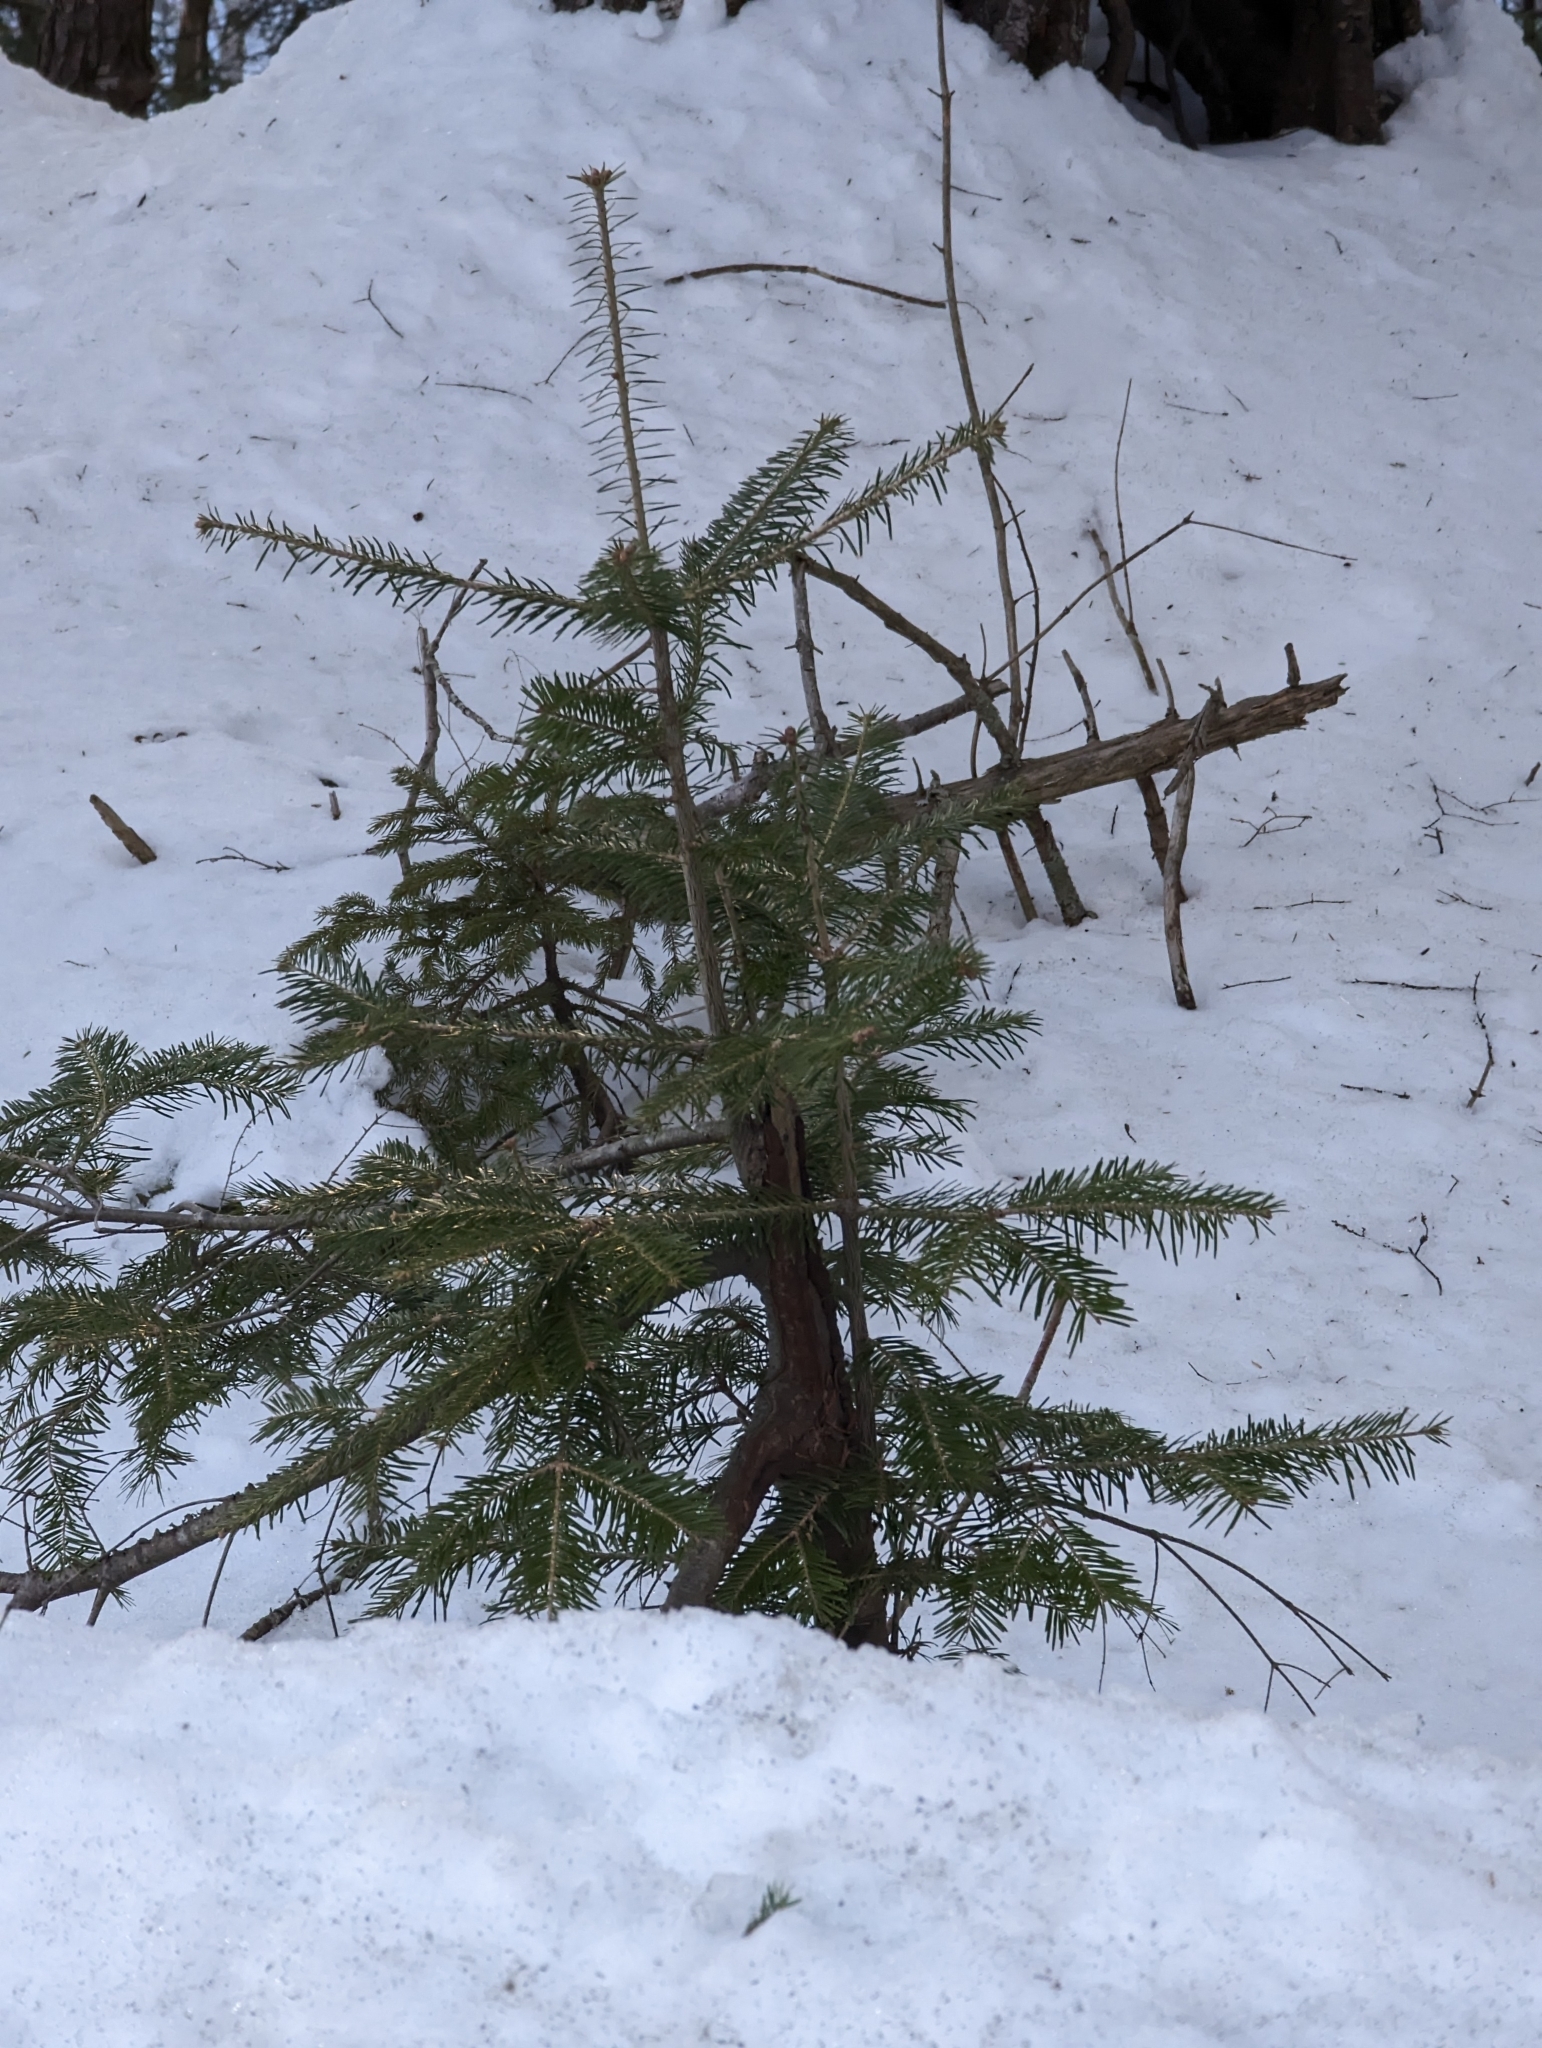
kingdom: Plantae
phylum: Tracheophyta
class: Pinopsida
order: Pinales
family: Pinaceae
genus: Abies
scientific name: Abies balsamea
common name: Balsam fir
